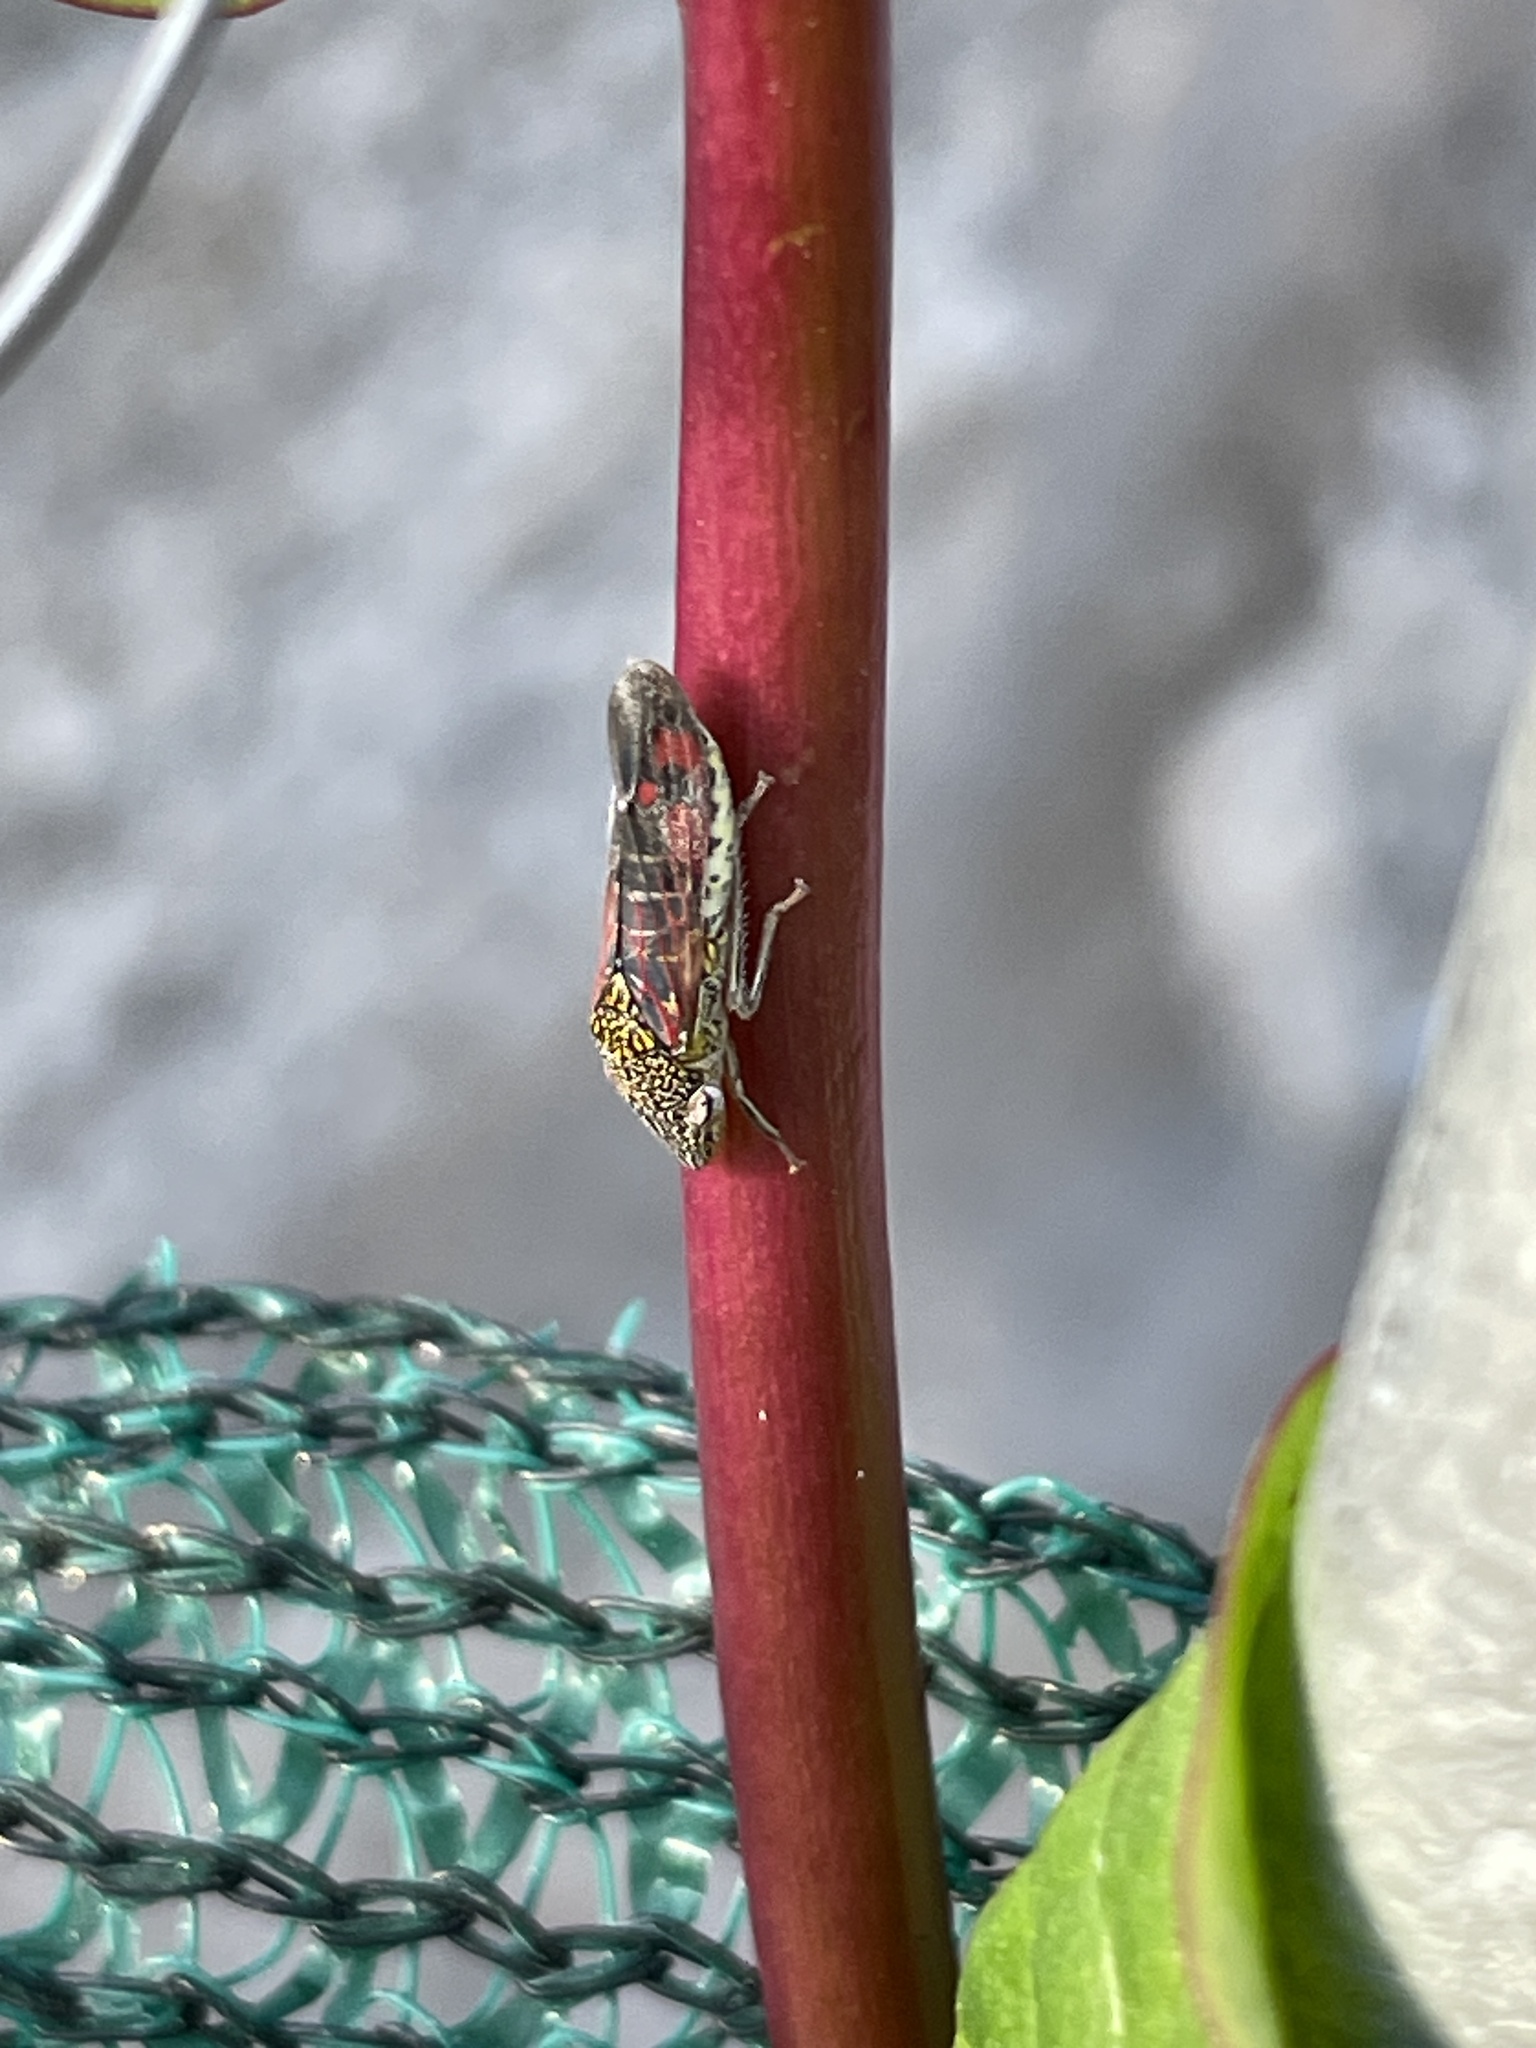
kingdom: Animalia
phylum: Arthropoda
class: Insecta
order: Hemiptera
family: Cicadellidae
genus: Homalodisca
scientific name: Homalodisca liturata
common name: Lacertate sharpshooter
